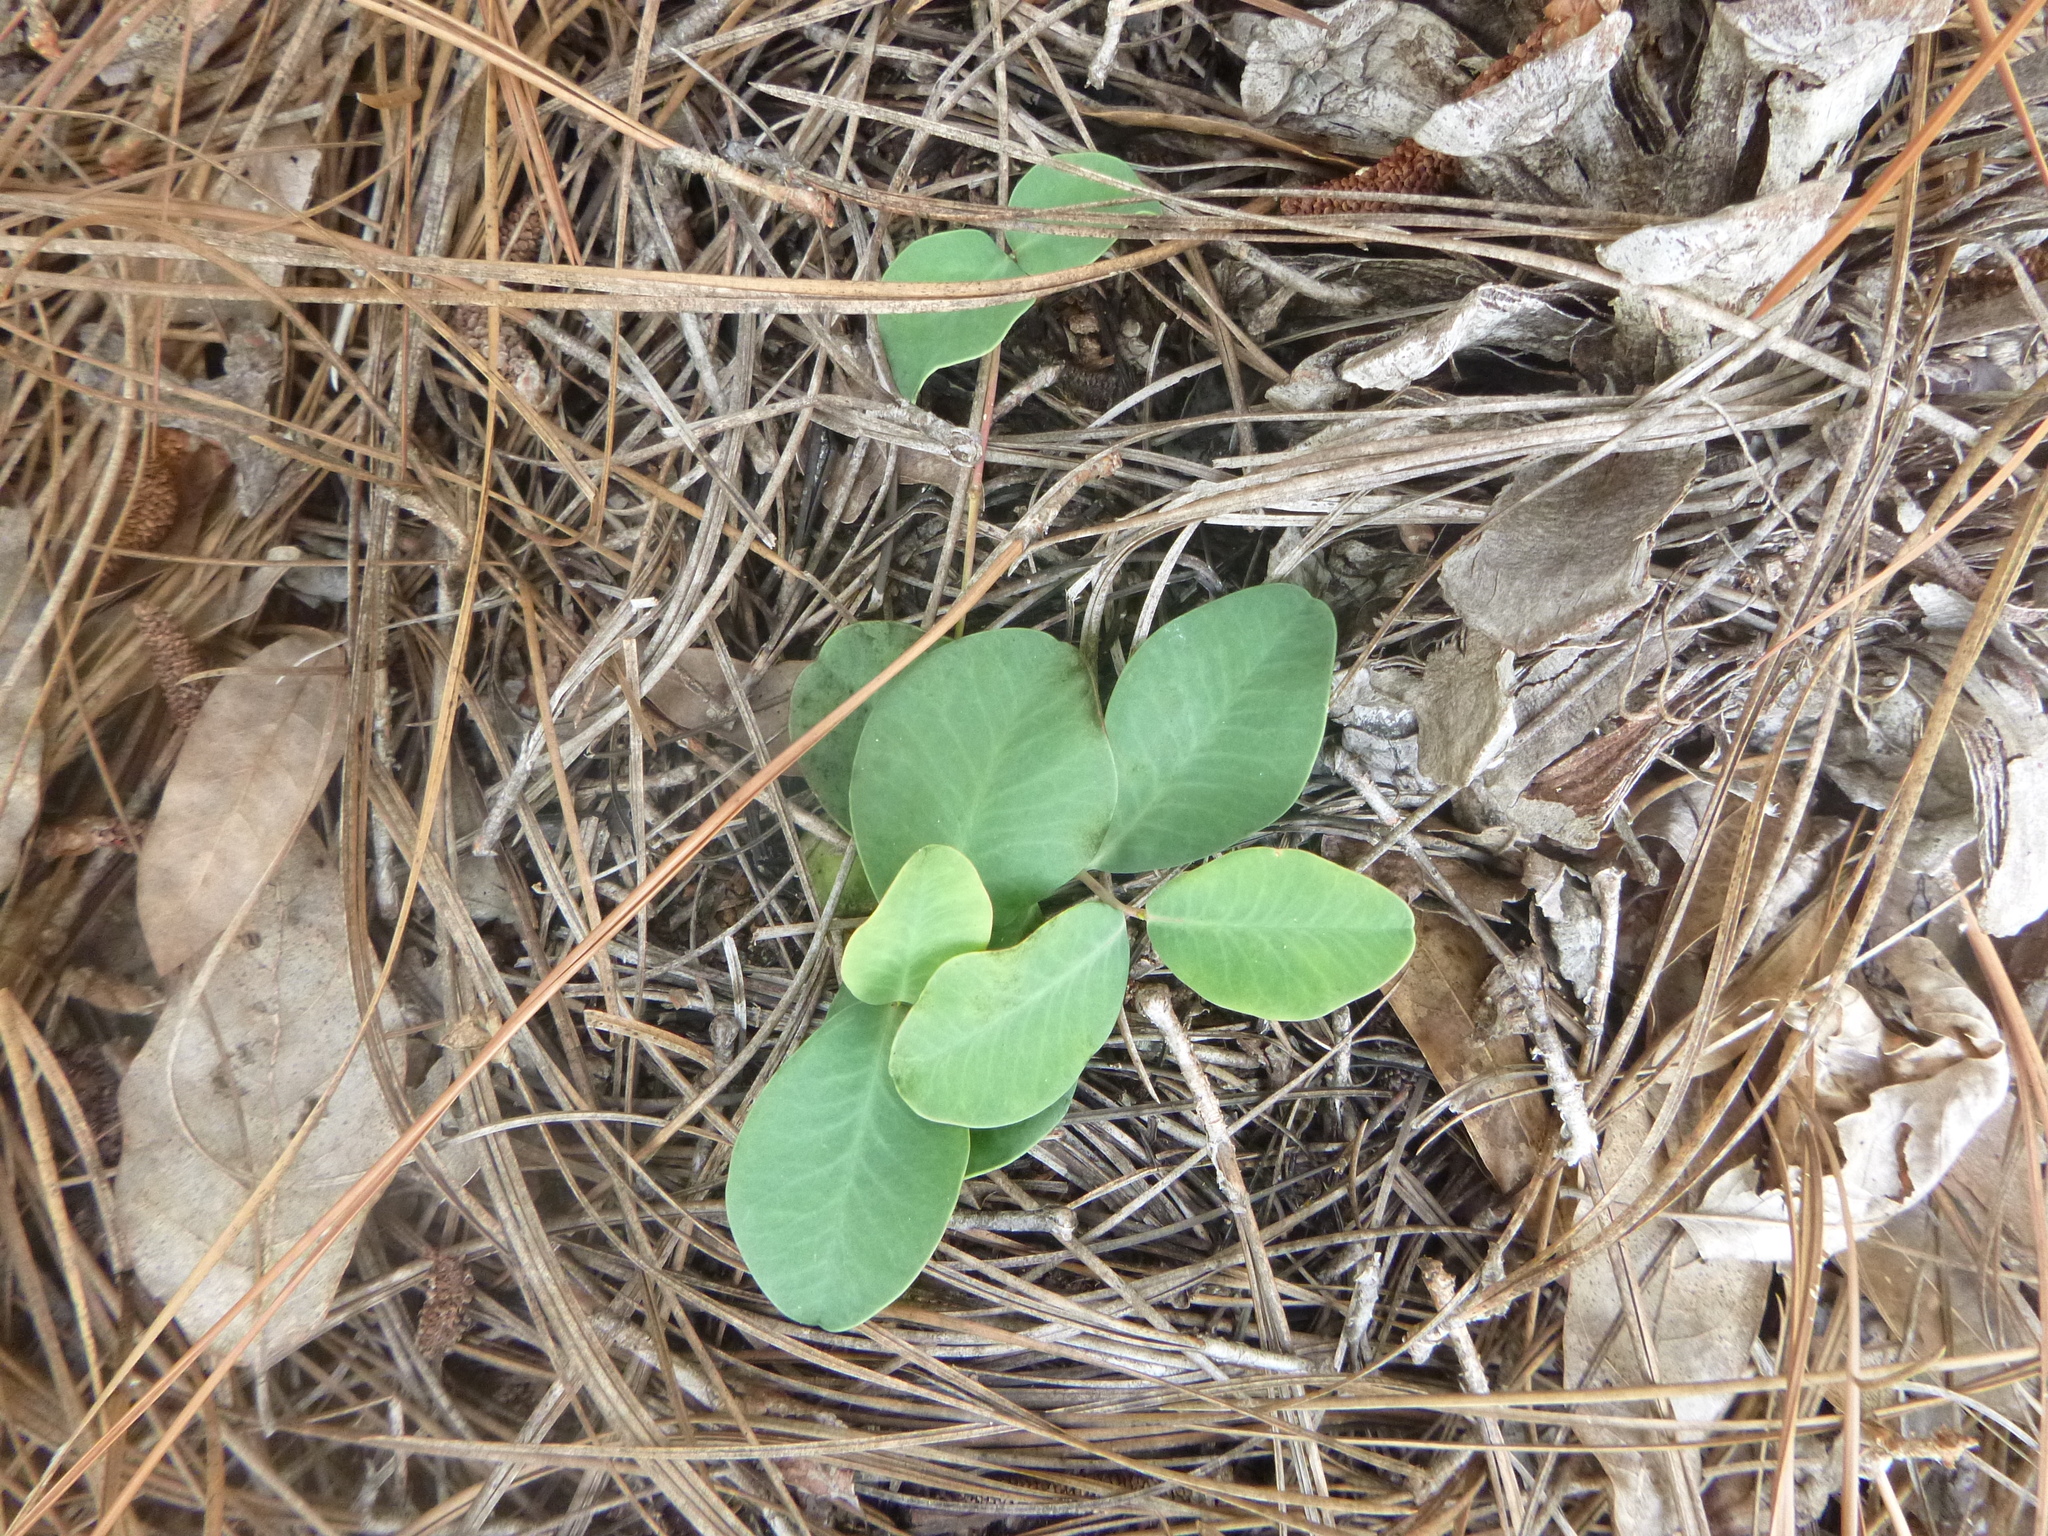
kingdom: Plantae
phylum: Tracheophyta
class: Magnoliopsida
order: Malpighiales
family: Euphorbiaceae
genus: Euphorbia
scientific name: Euphorbia ipecacuanhae
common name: Carolina ipecac
